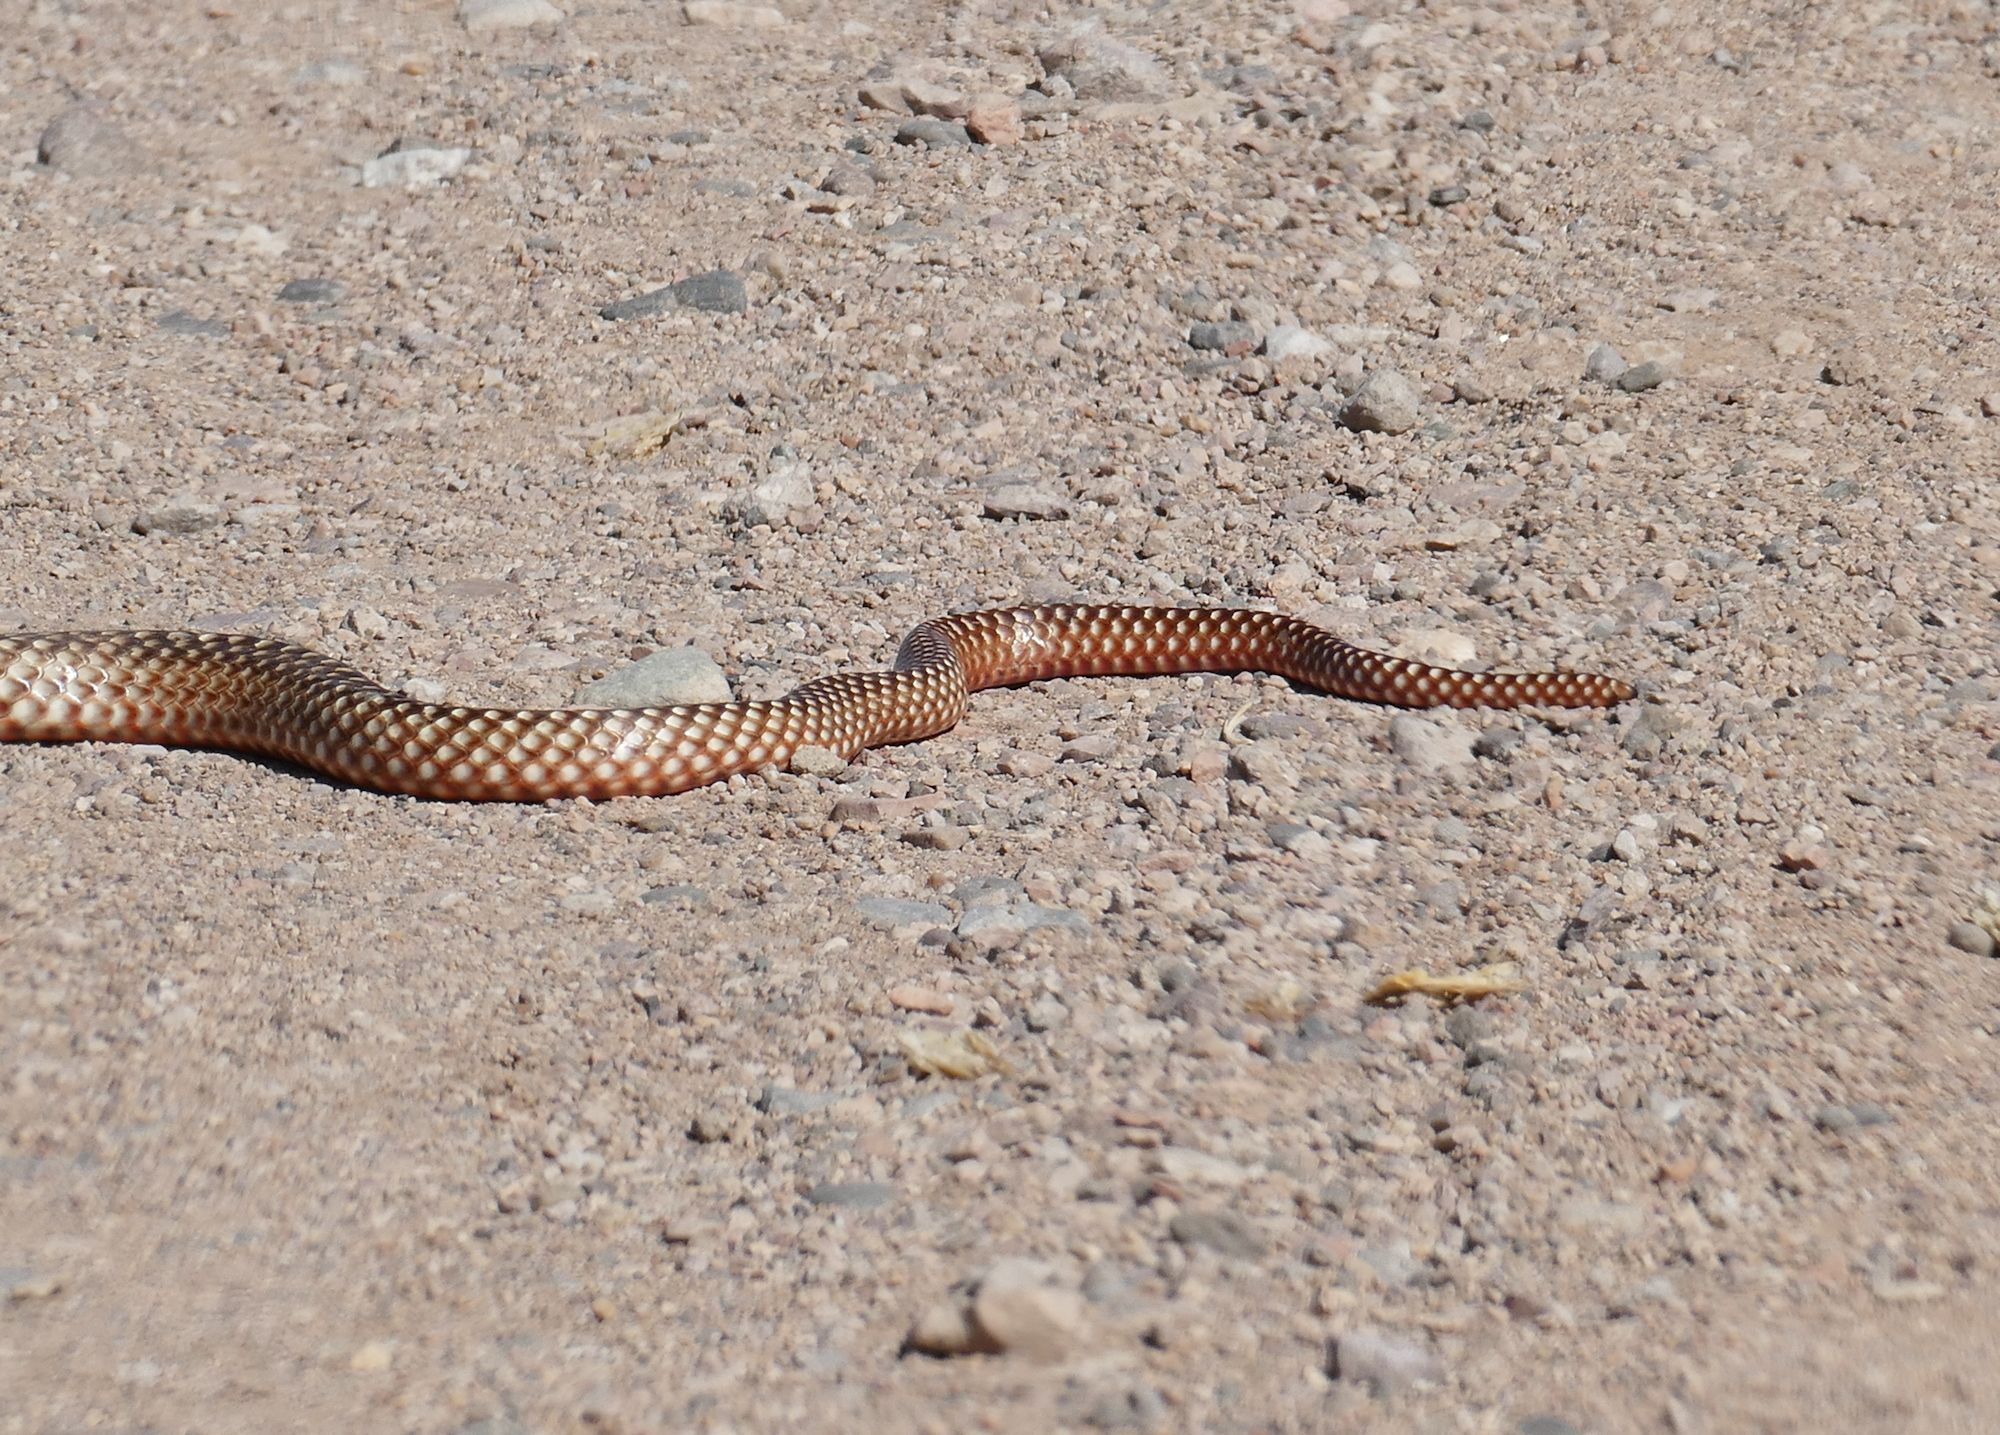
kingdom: Animalia
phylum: Chordata
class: Squamata
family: Colubridae
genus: Masticophis
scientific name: Masticophis flagellum
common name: Coachwhip
